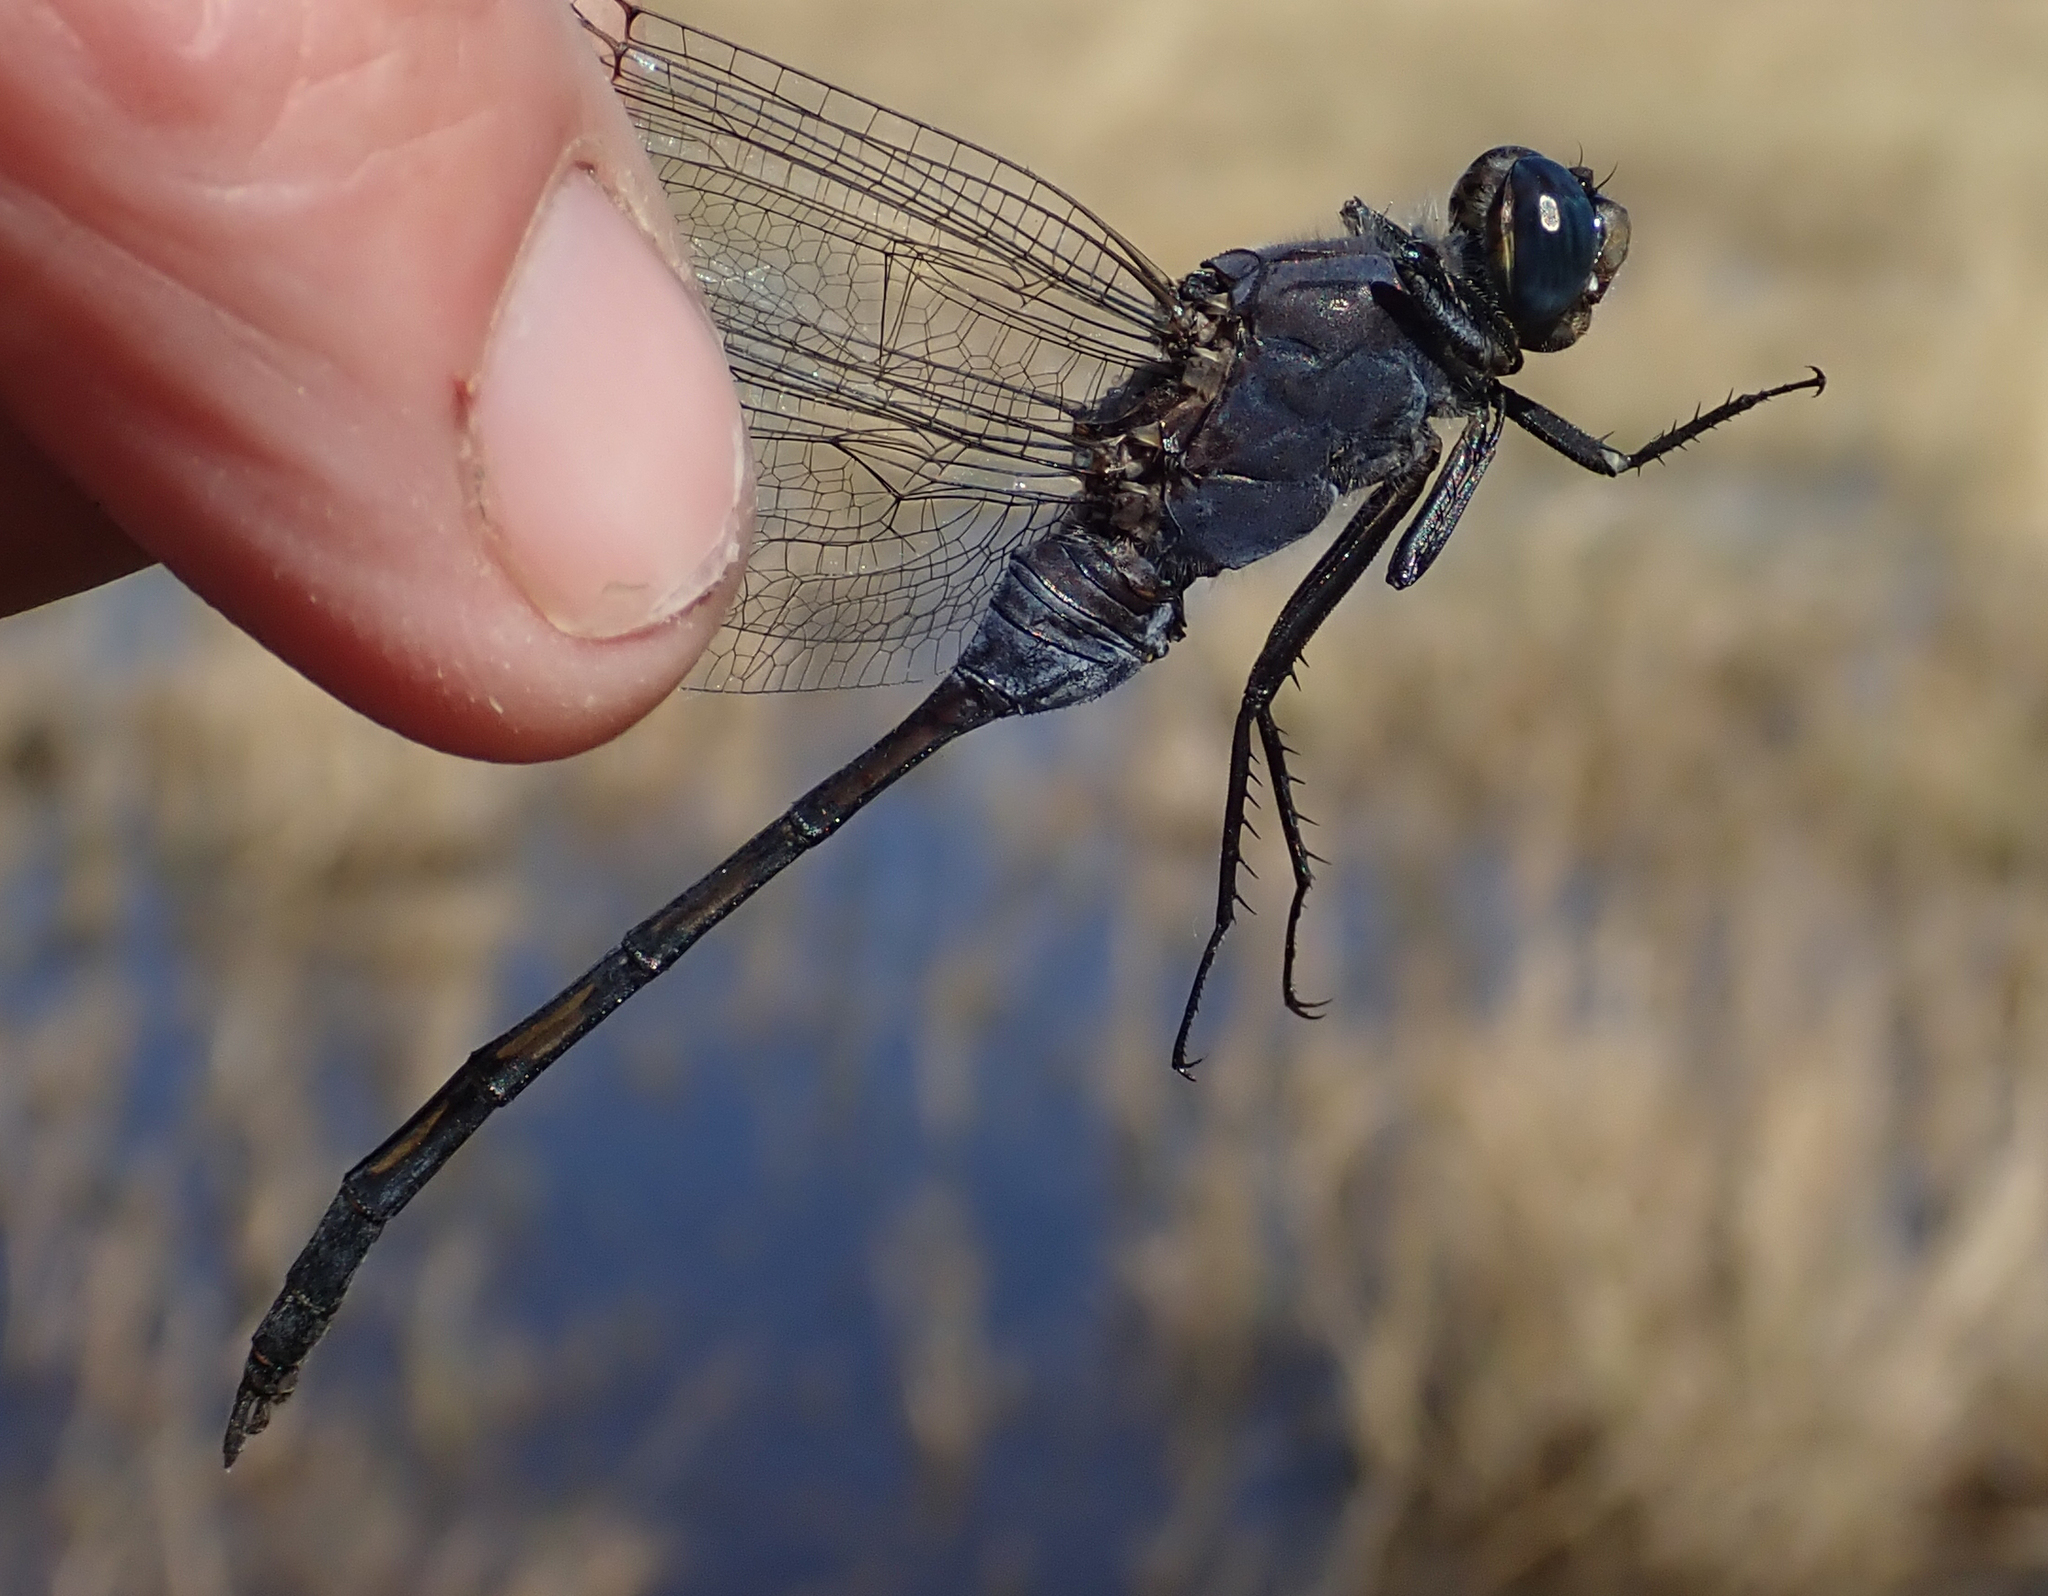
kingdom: Animalia
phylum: Arthropoda
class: Insecta
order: Odonata
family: Libellulidae
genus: Orthetrum
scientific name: Orthetrum trinacria
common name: Long skimmer
